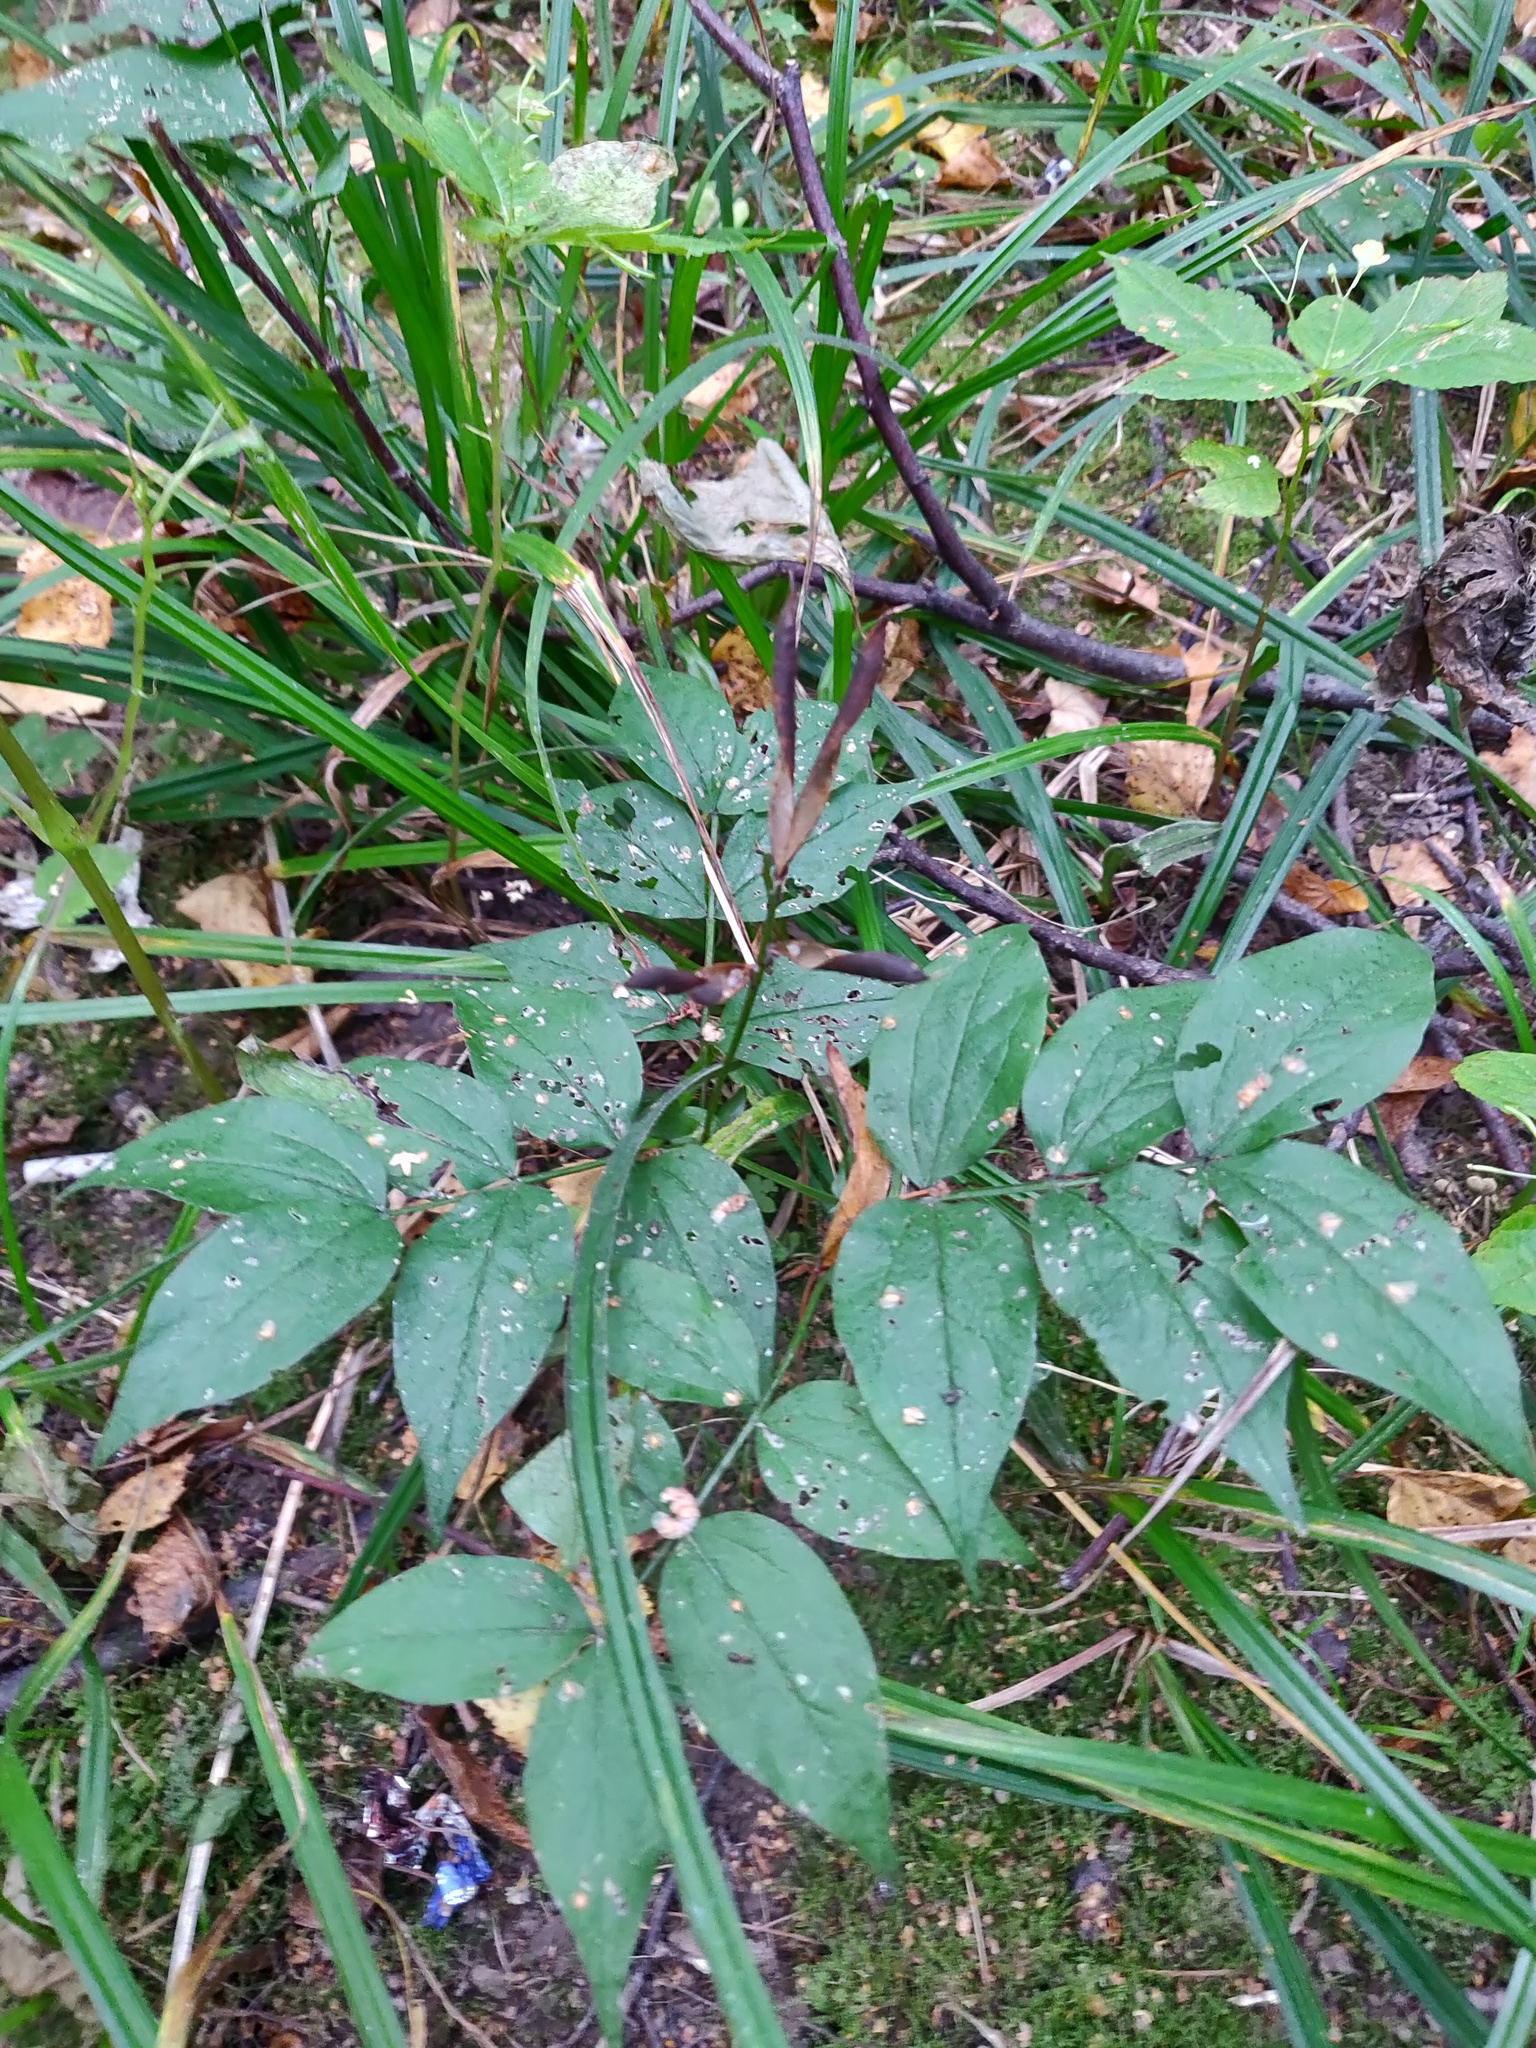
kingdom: Plantae
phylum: Tracheophyta
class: Magnoliopsida
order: Fabales
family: Fabaceae
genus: Lathyrus
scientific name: Lathyrus vernus
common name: Spring pea
